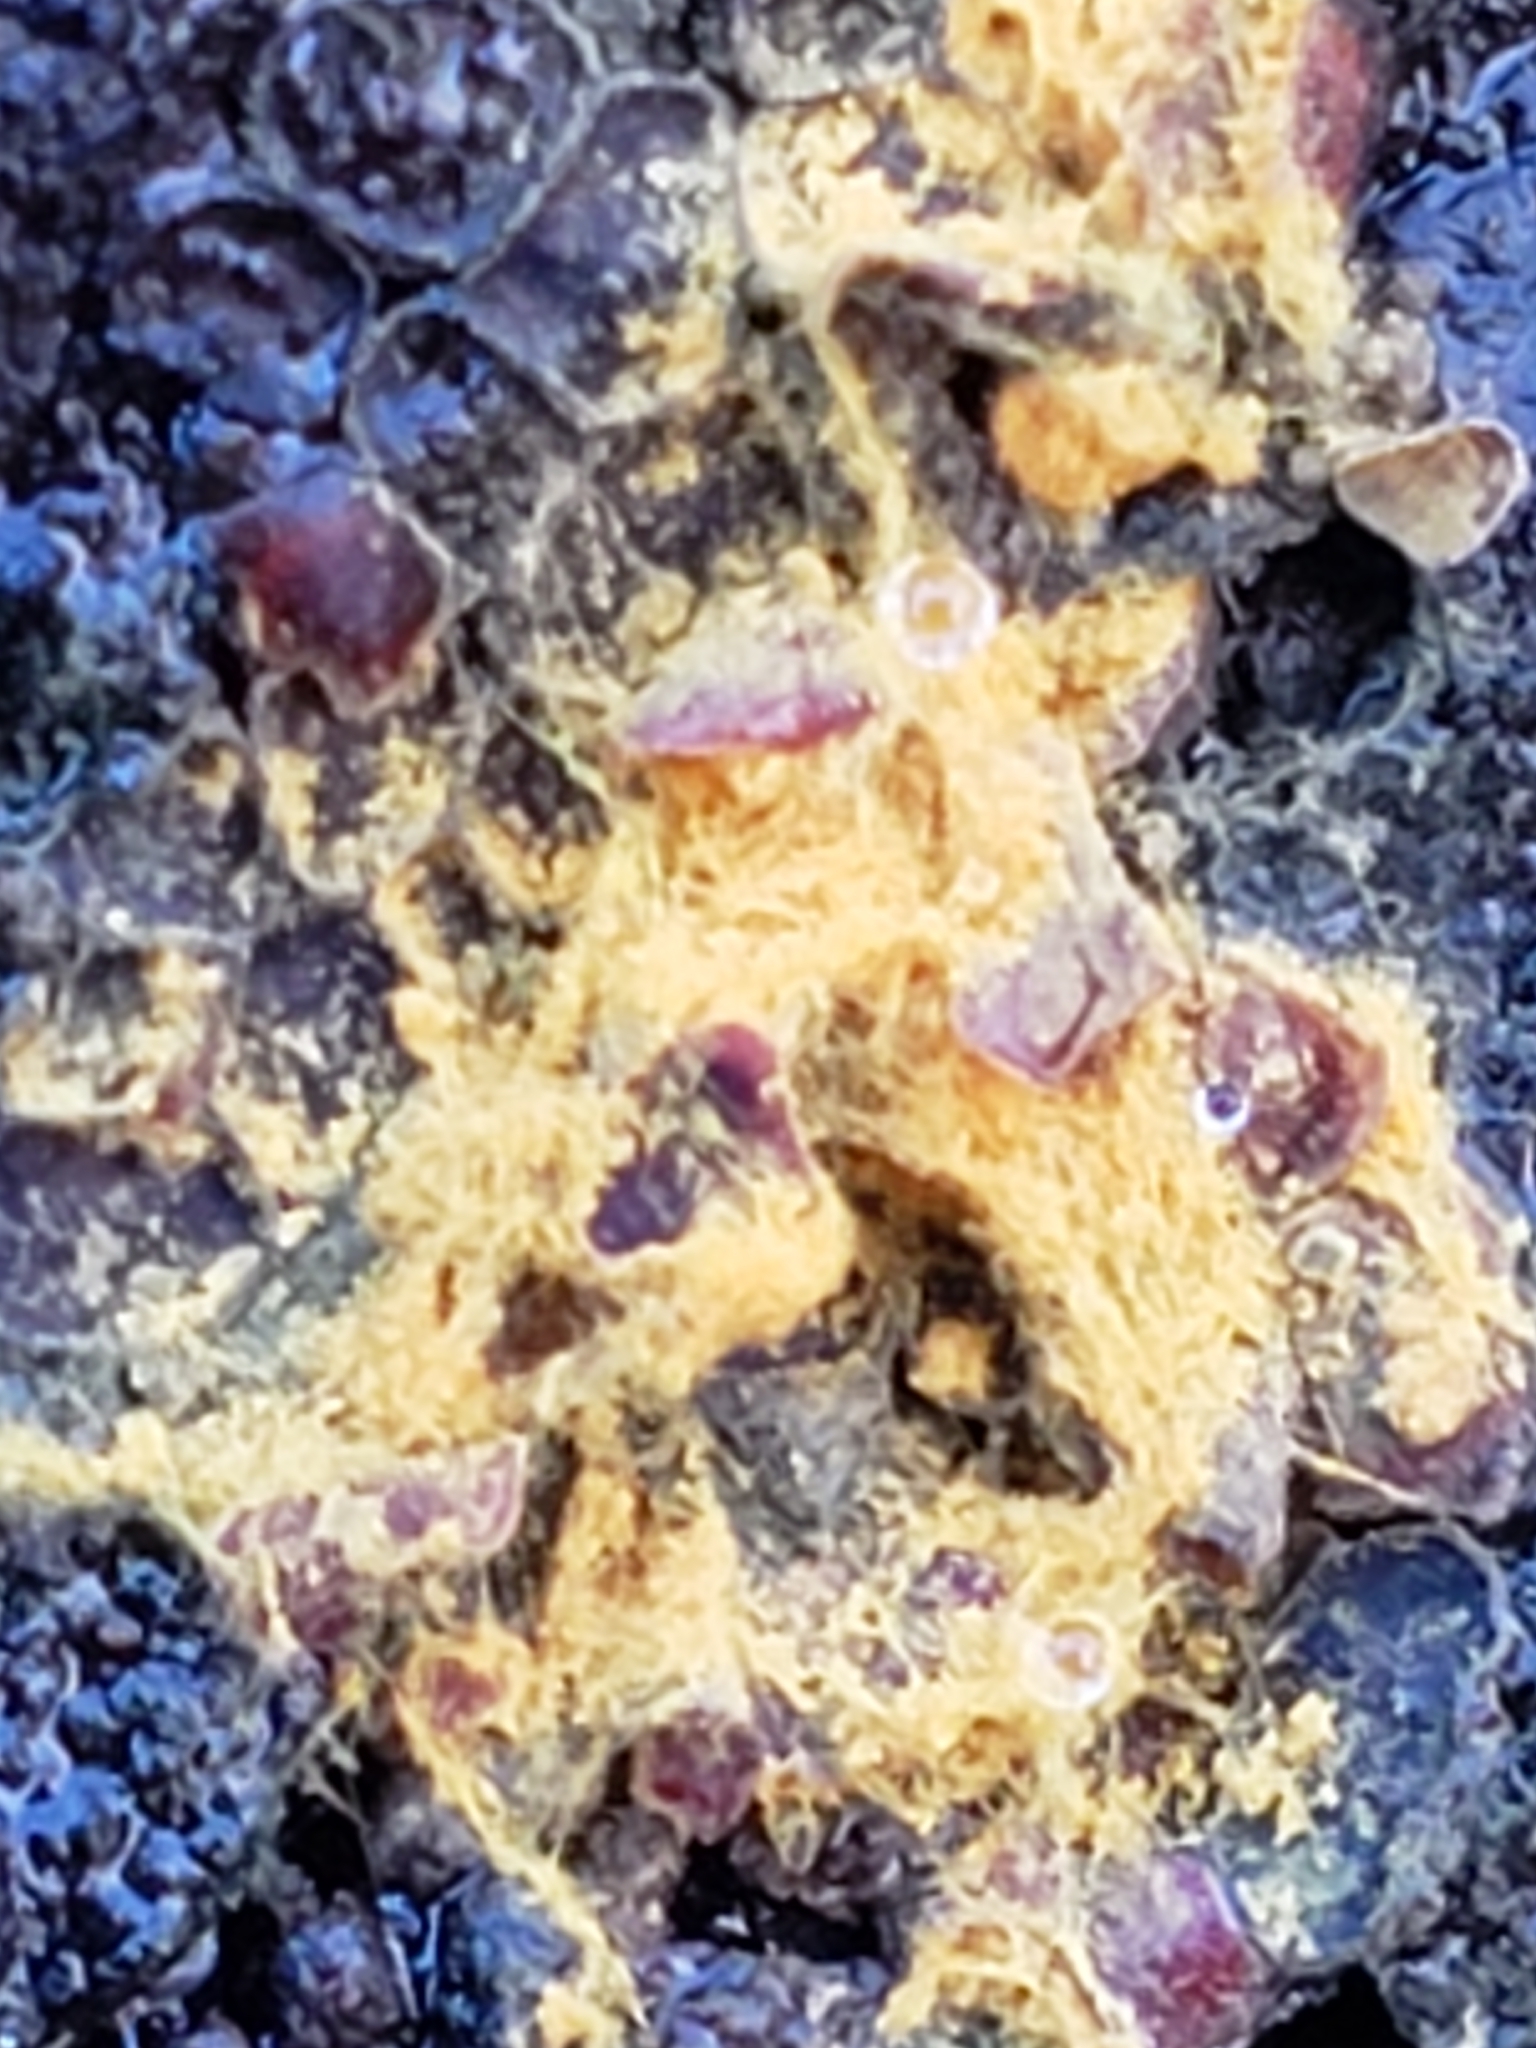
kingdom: Protozoa
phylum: Mycetozoa
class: Myxomycetes
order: Trichiales
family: Trichiaceae
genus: Perichaena
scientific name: Perichaena depressa
